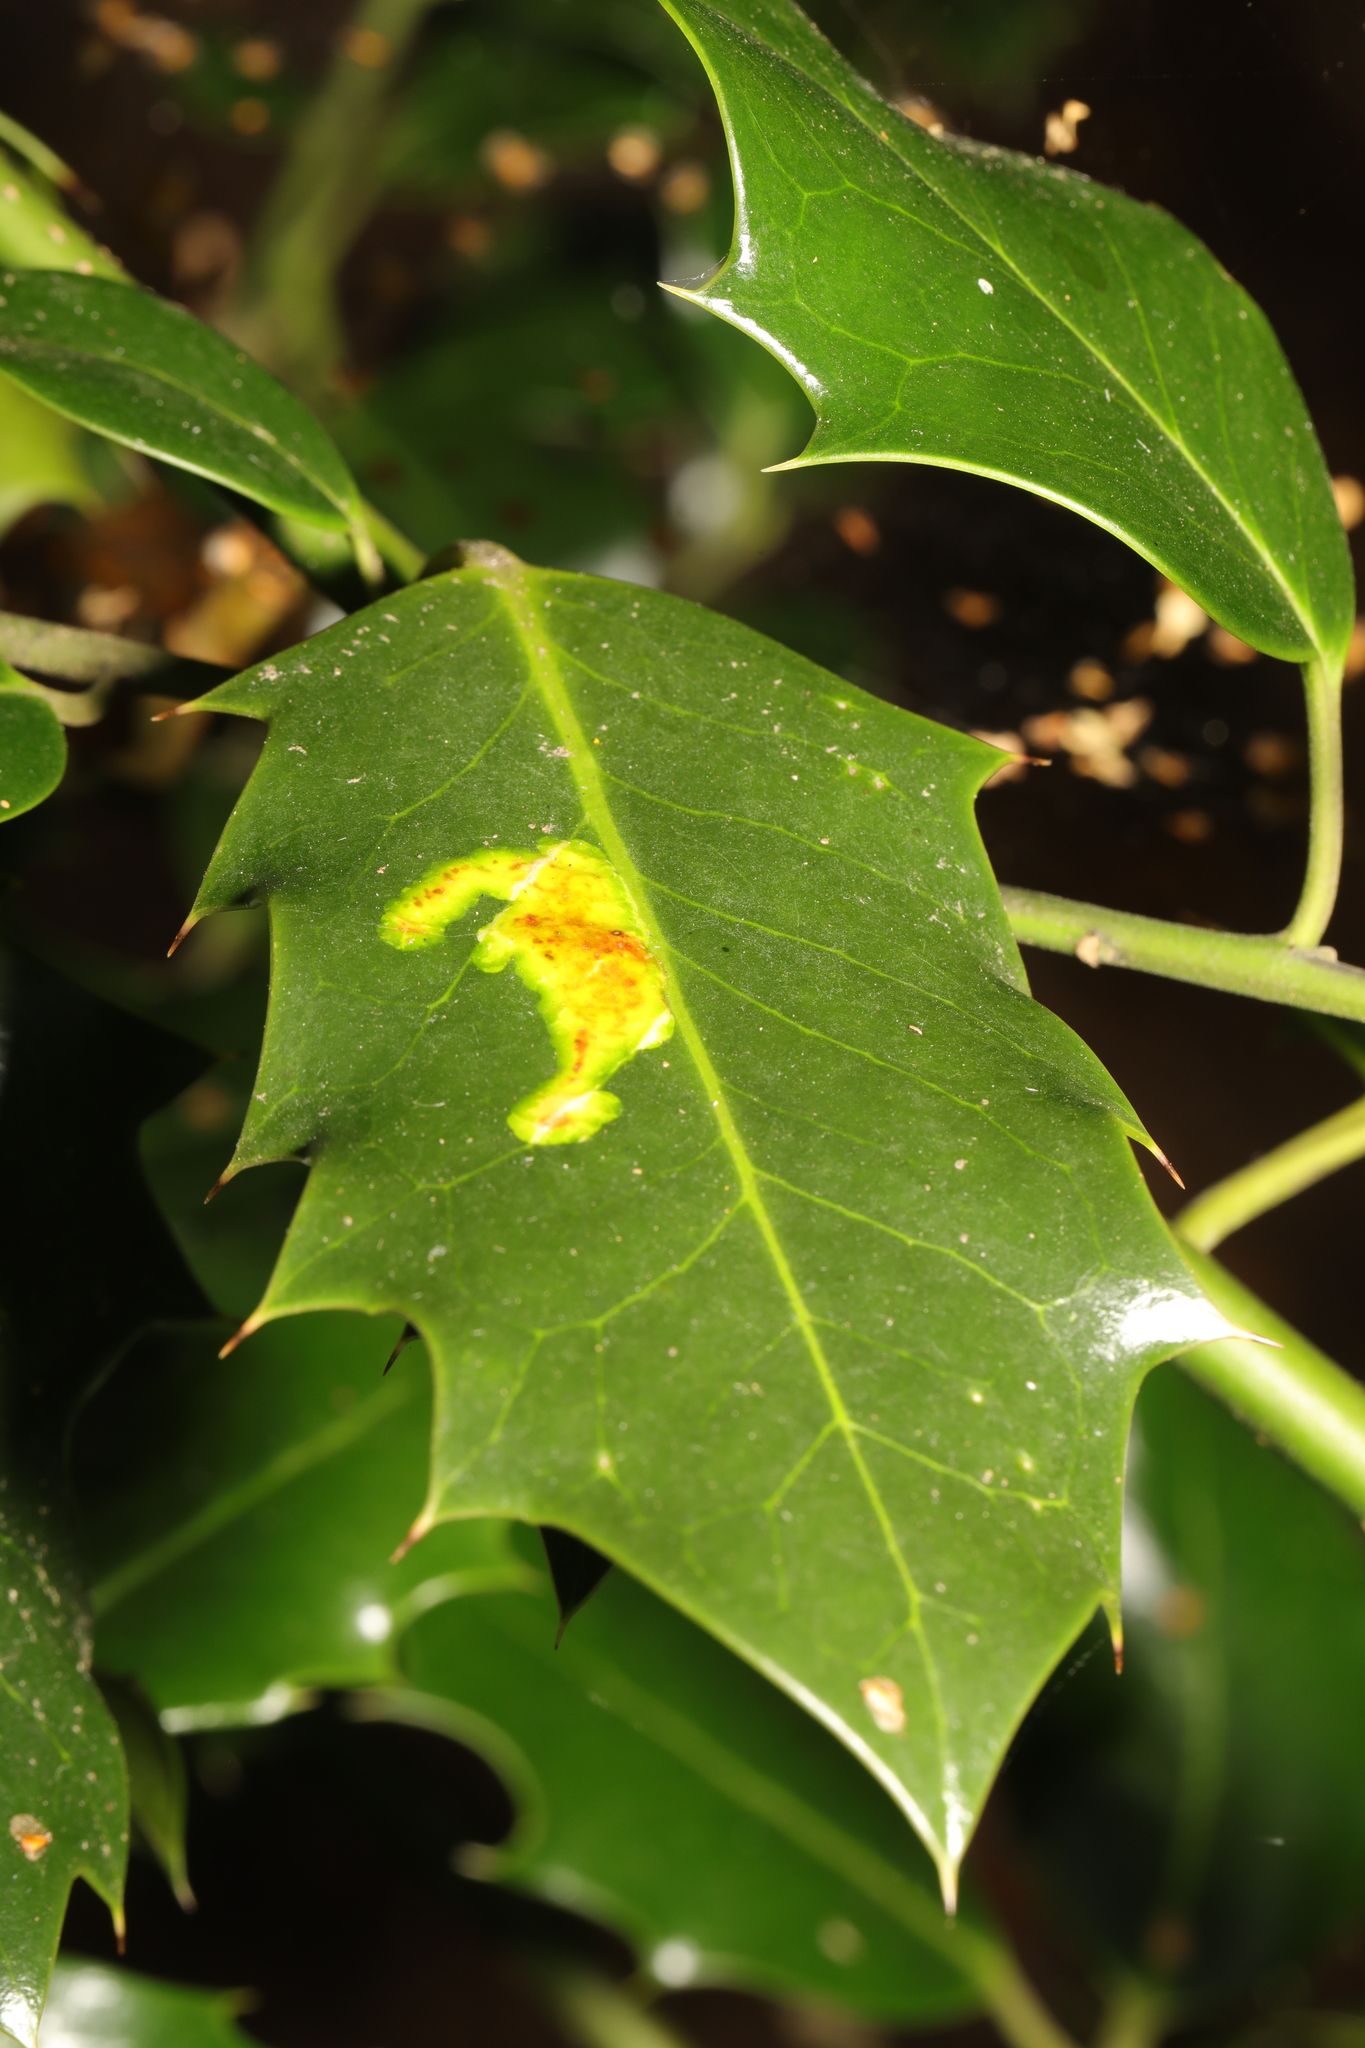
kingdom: Animalia
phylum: Arthropoda
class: Insecta
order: Diptera
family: Agromyzidae
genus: Phytomyza
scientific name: Phytomyza ilicis
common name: Holly leafminer
